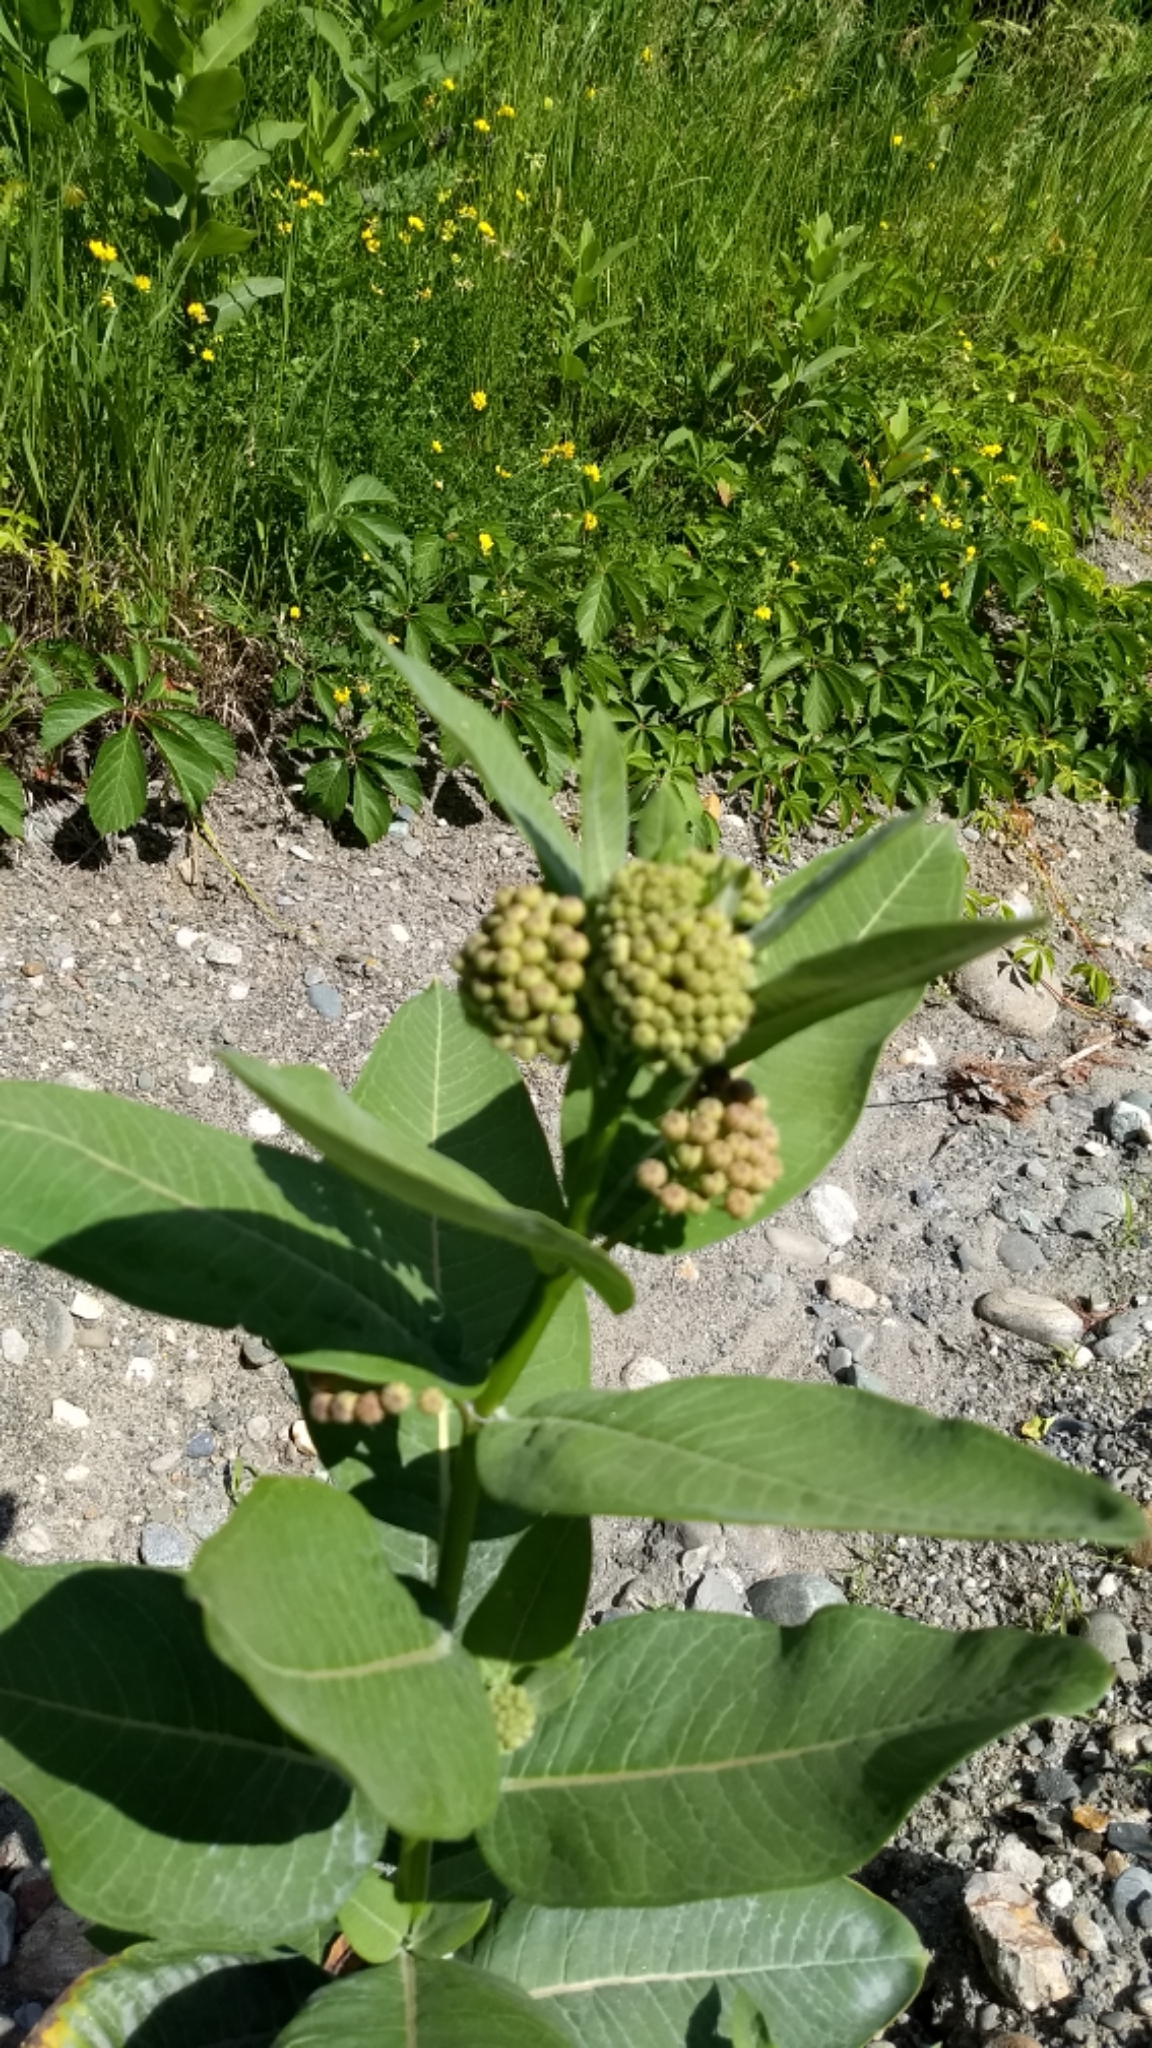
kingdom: Plantae
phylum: Tracheophyta
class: Magnoliopsida
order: Gentianales
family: Apocynaceae
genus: Asclepias
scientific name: Asclepias syriaca
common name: Common milkweed
